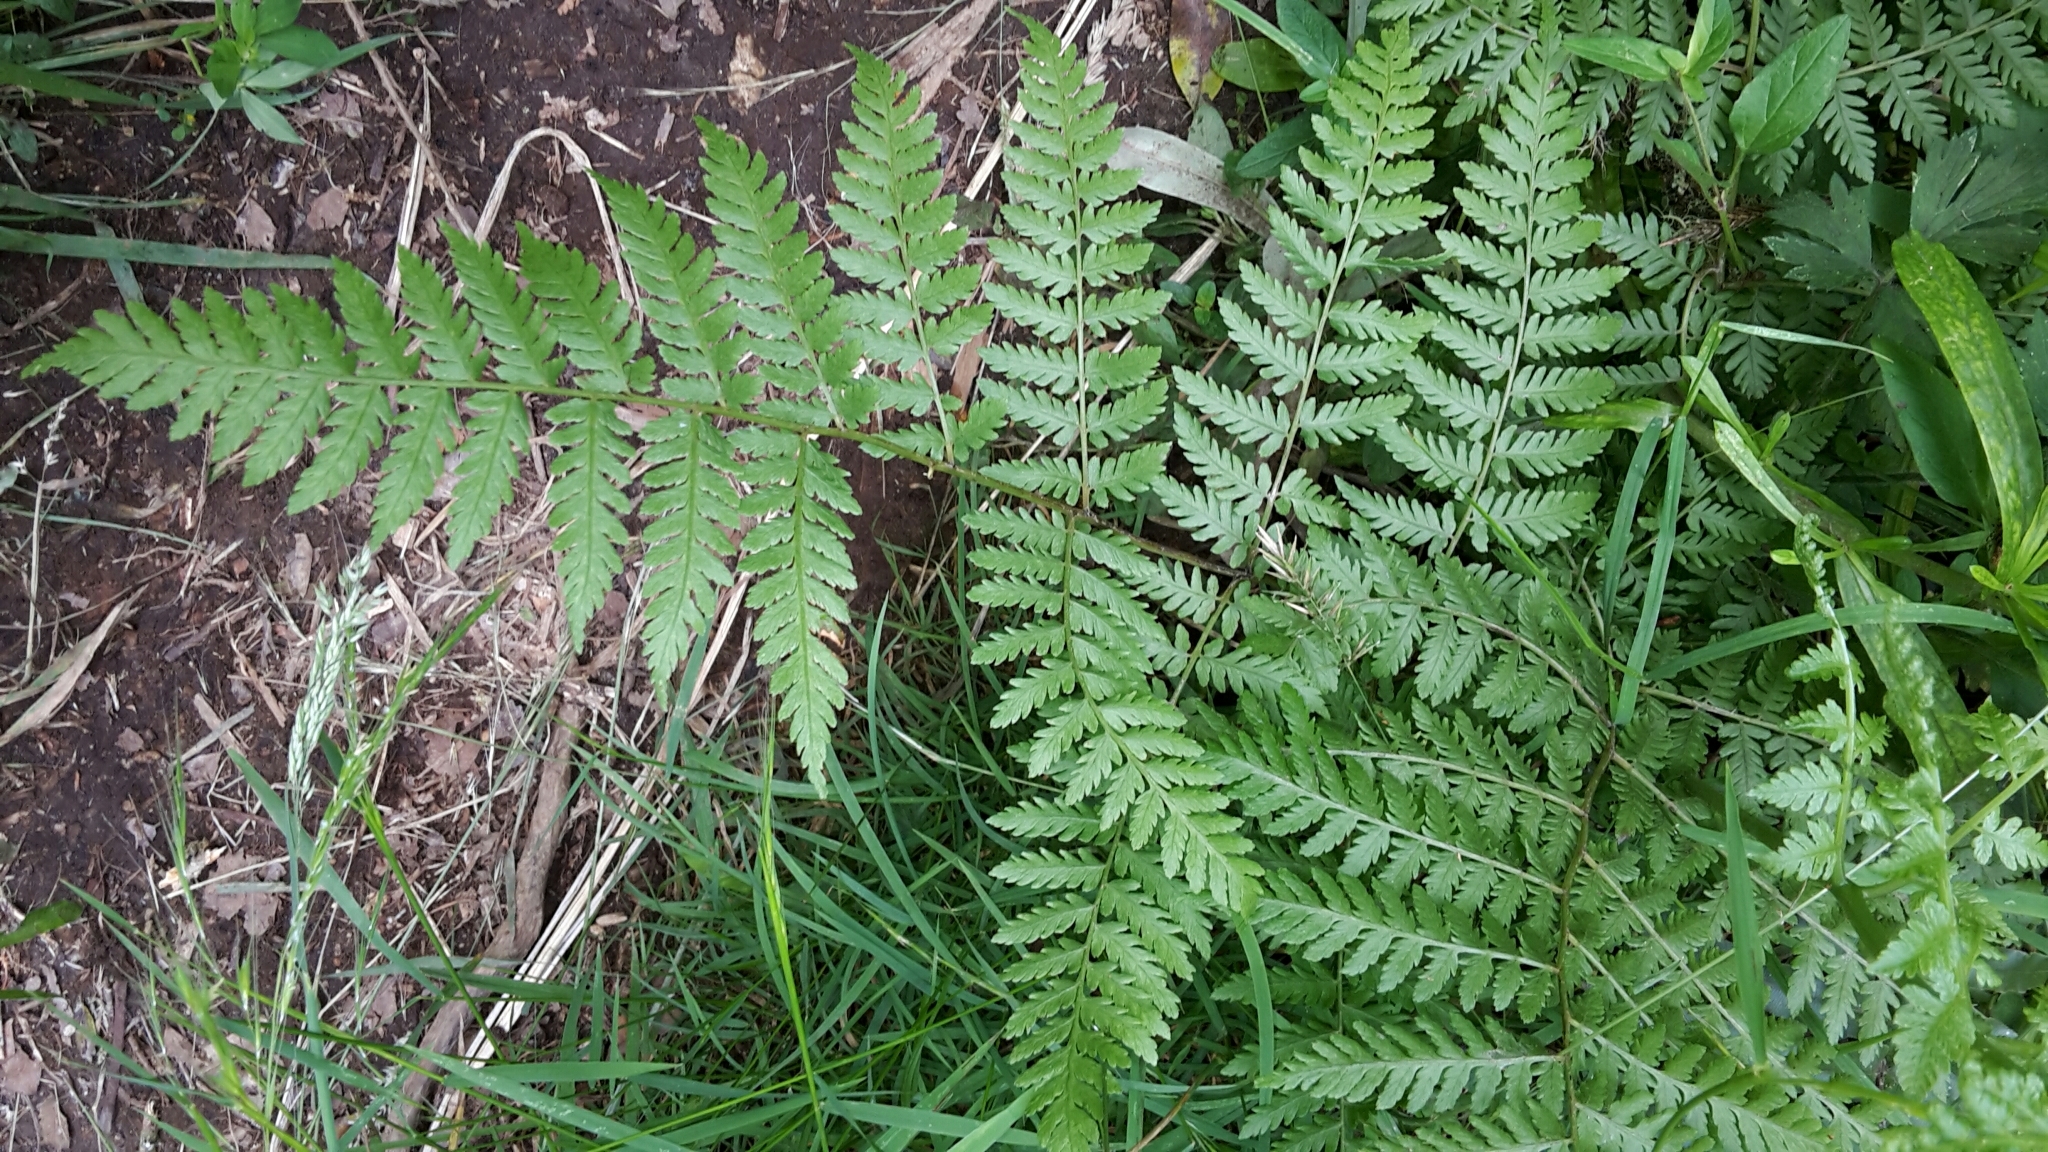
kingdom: Plantae
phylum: Tracheophyta
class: Polypodiopsida
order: Polypodiales
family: Athyriaceae
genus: Diplazium
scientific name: Diplazium australe
